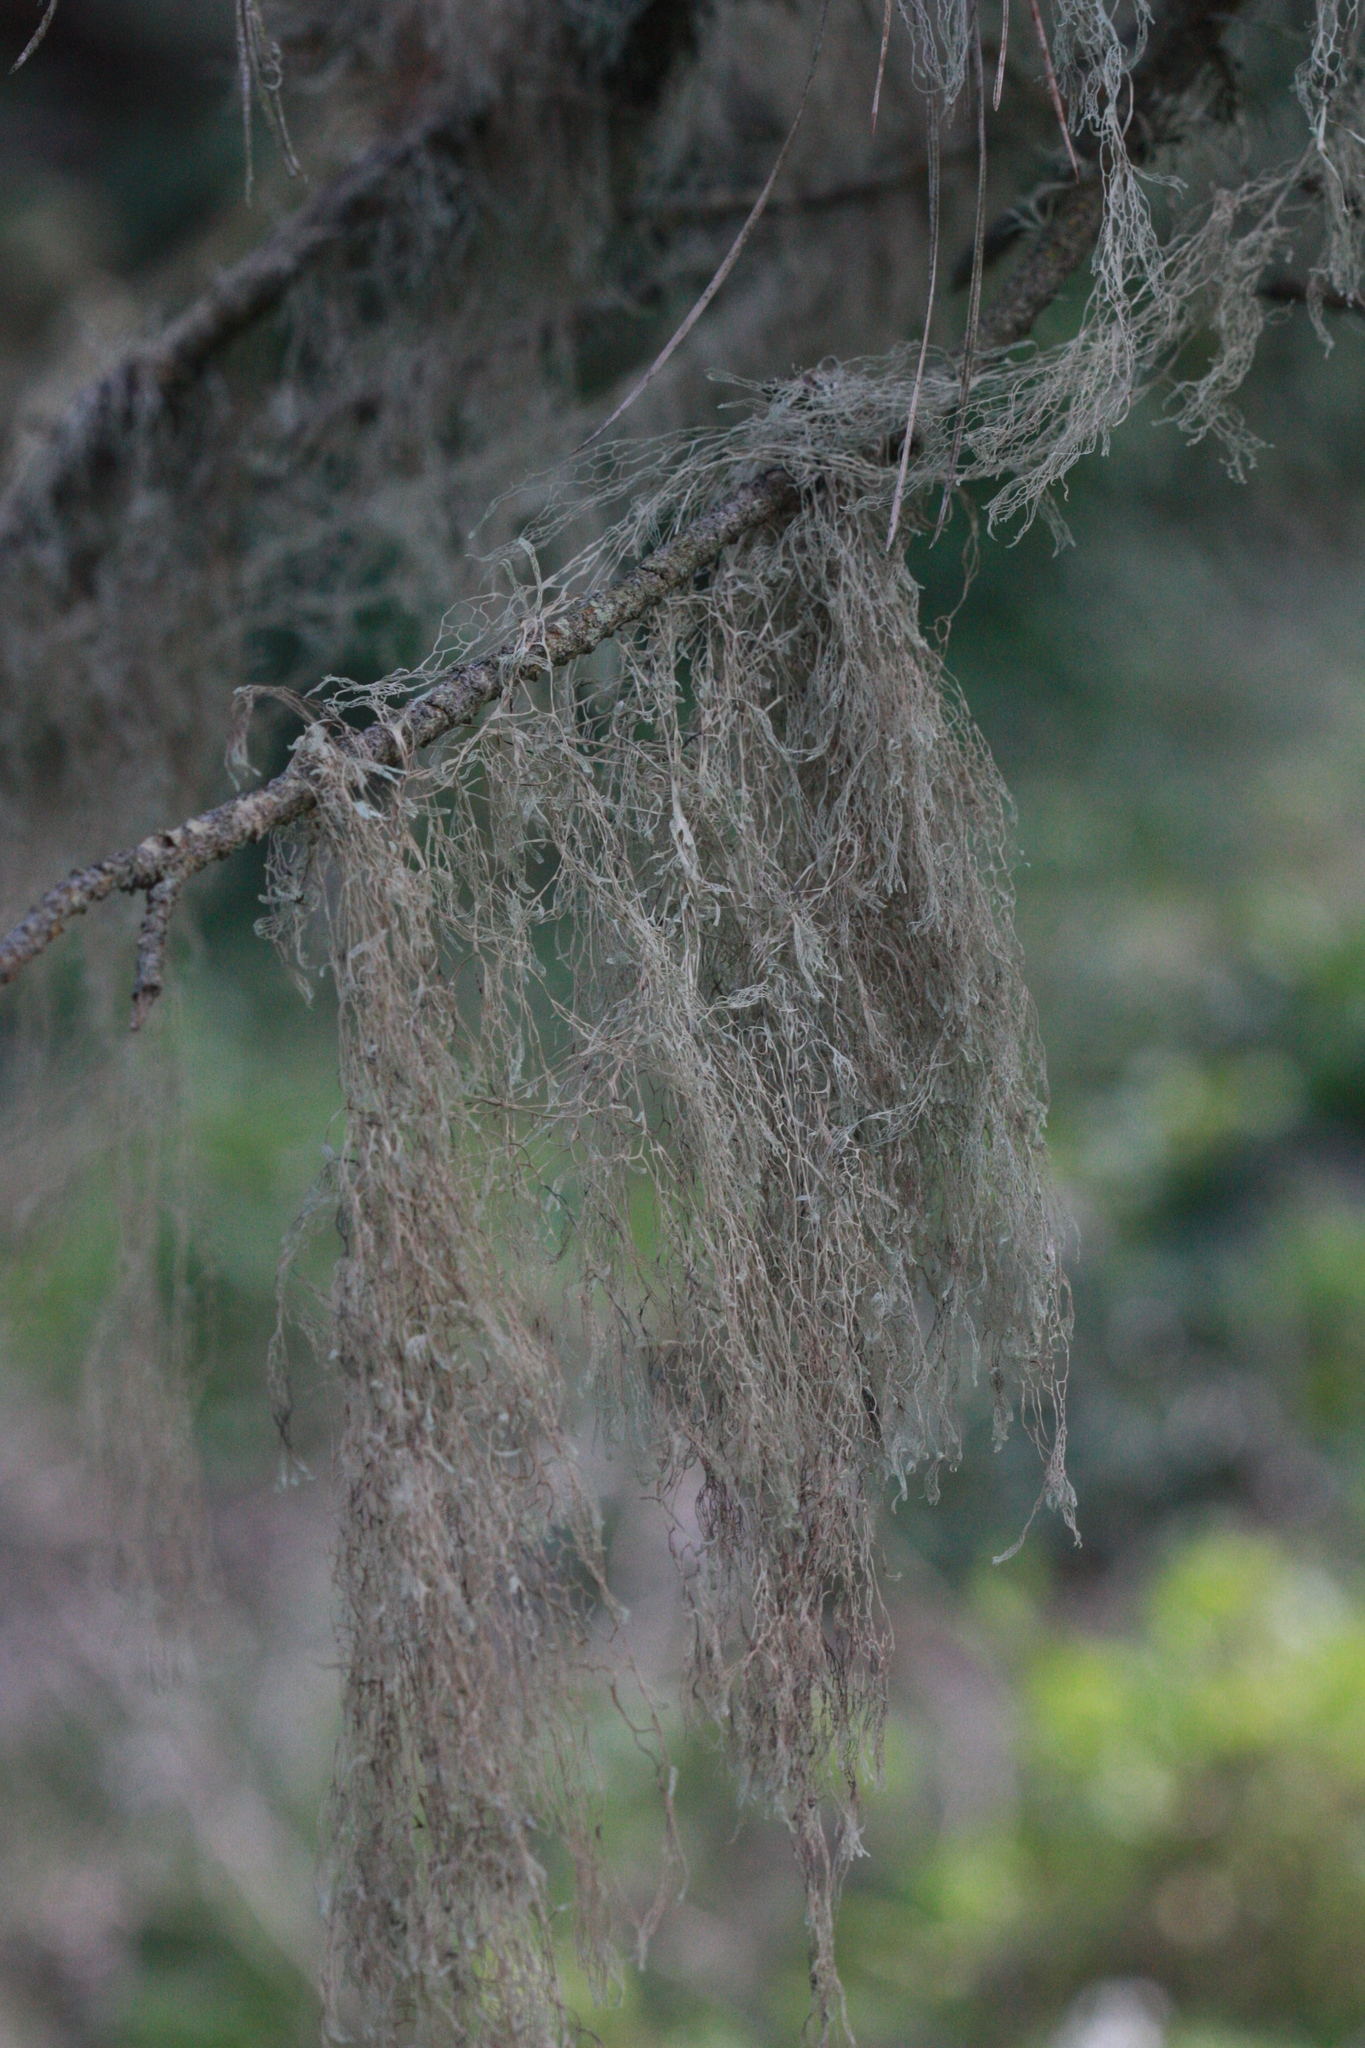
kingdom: Fungi
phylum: Ascomycota
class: Lecanoromycetes
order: Lecanorales
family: Ramalinaceae
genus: Ramalina
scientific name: Ramalina menziesii
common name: Lace lichen
